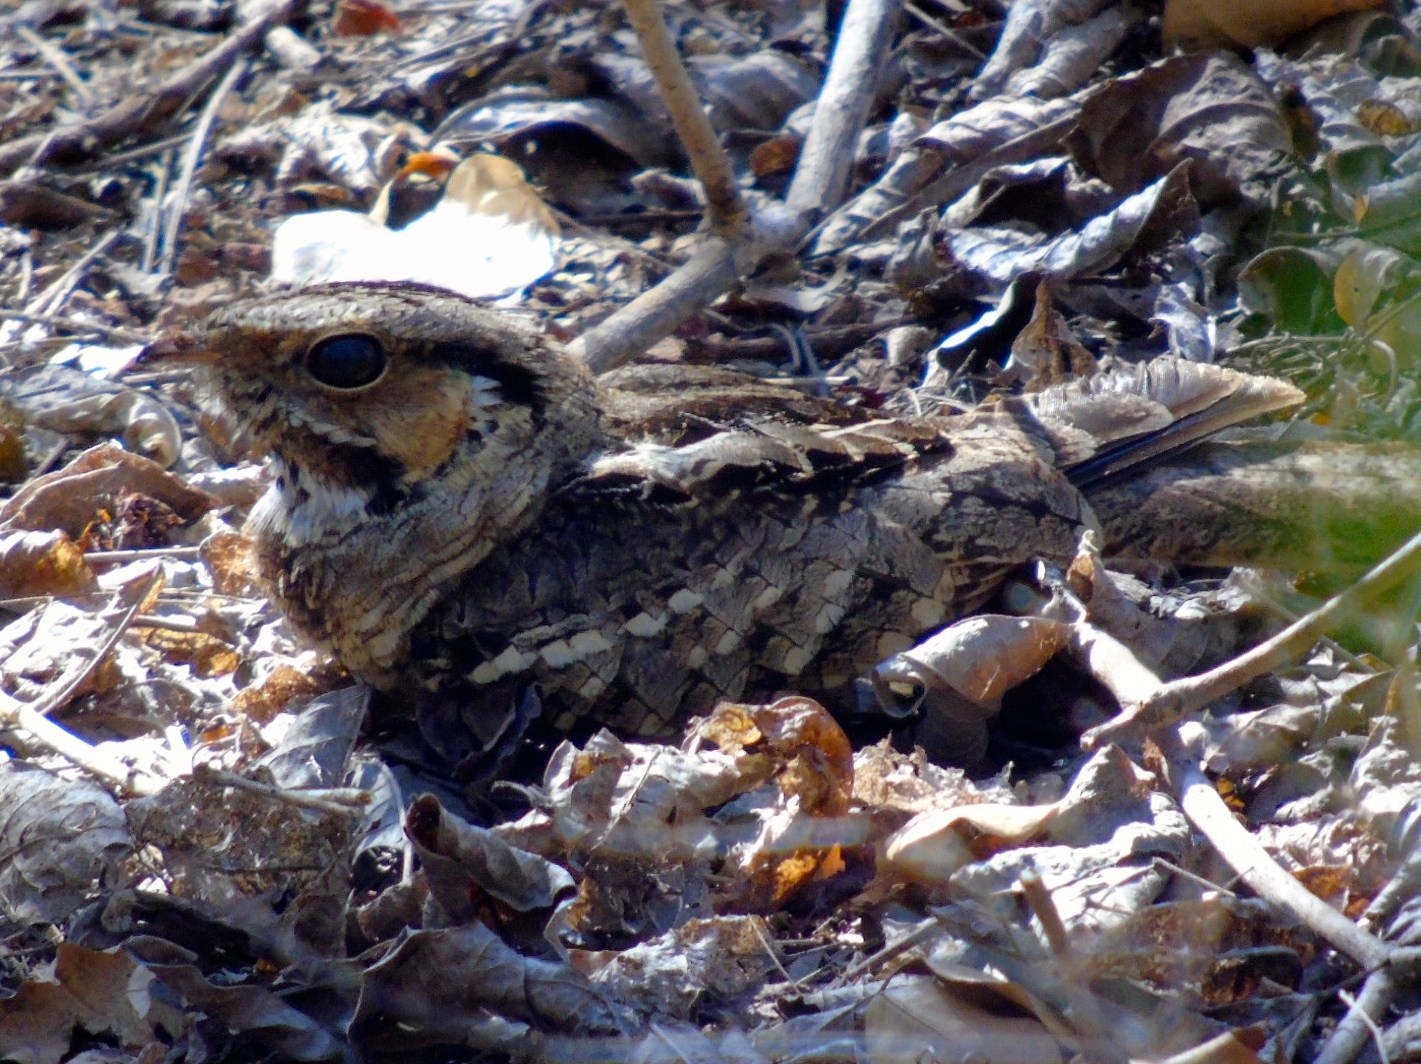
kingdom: Animalia
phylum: Chordata
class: Aves
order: Caprimulgiformes
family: Caprimulgidae
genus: Nyctidromus
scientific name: Nyctidromus albicollis
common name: Pauraque
